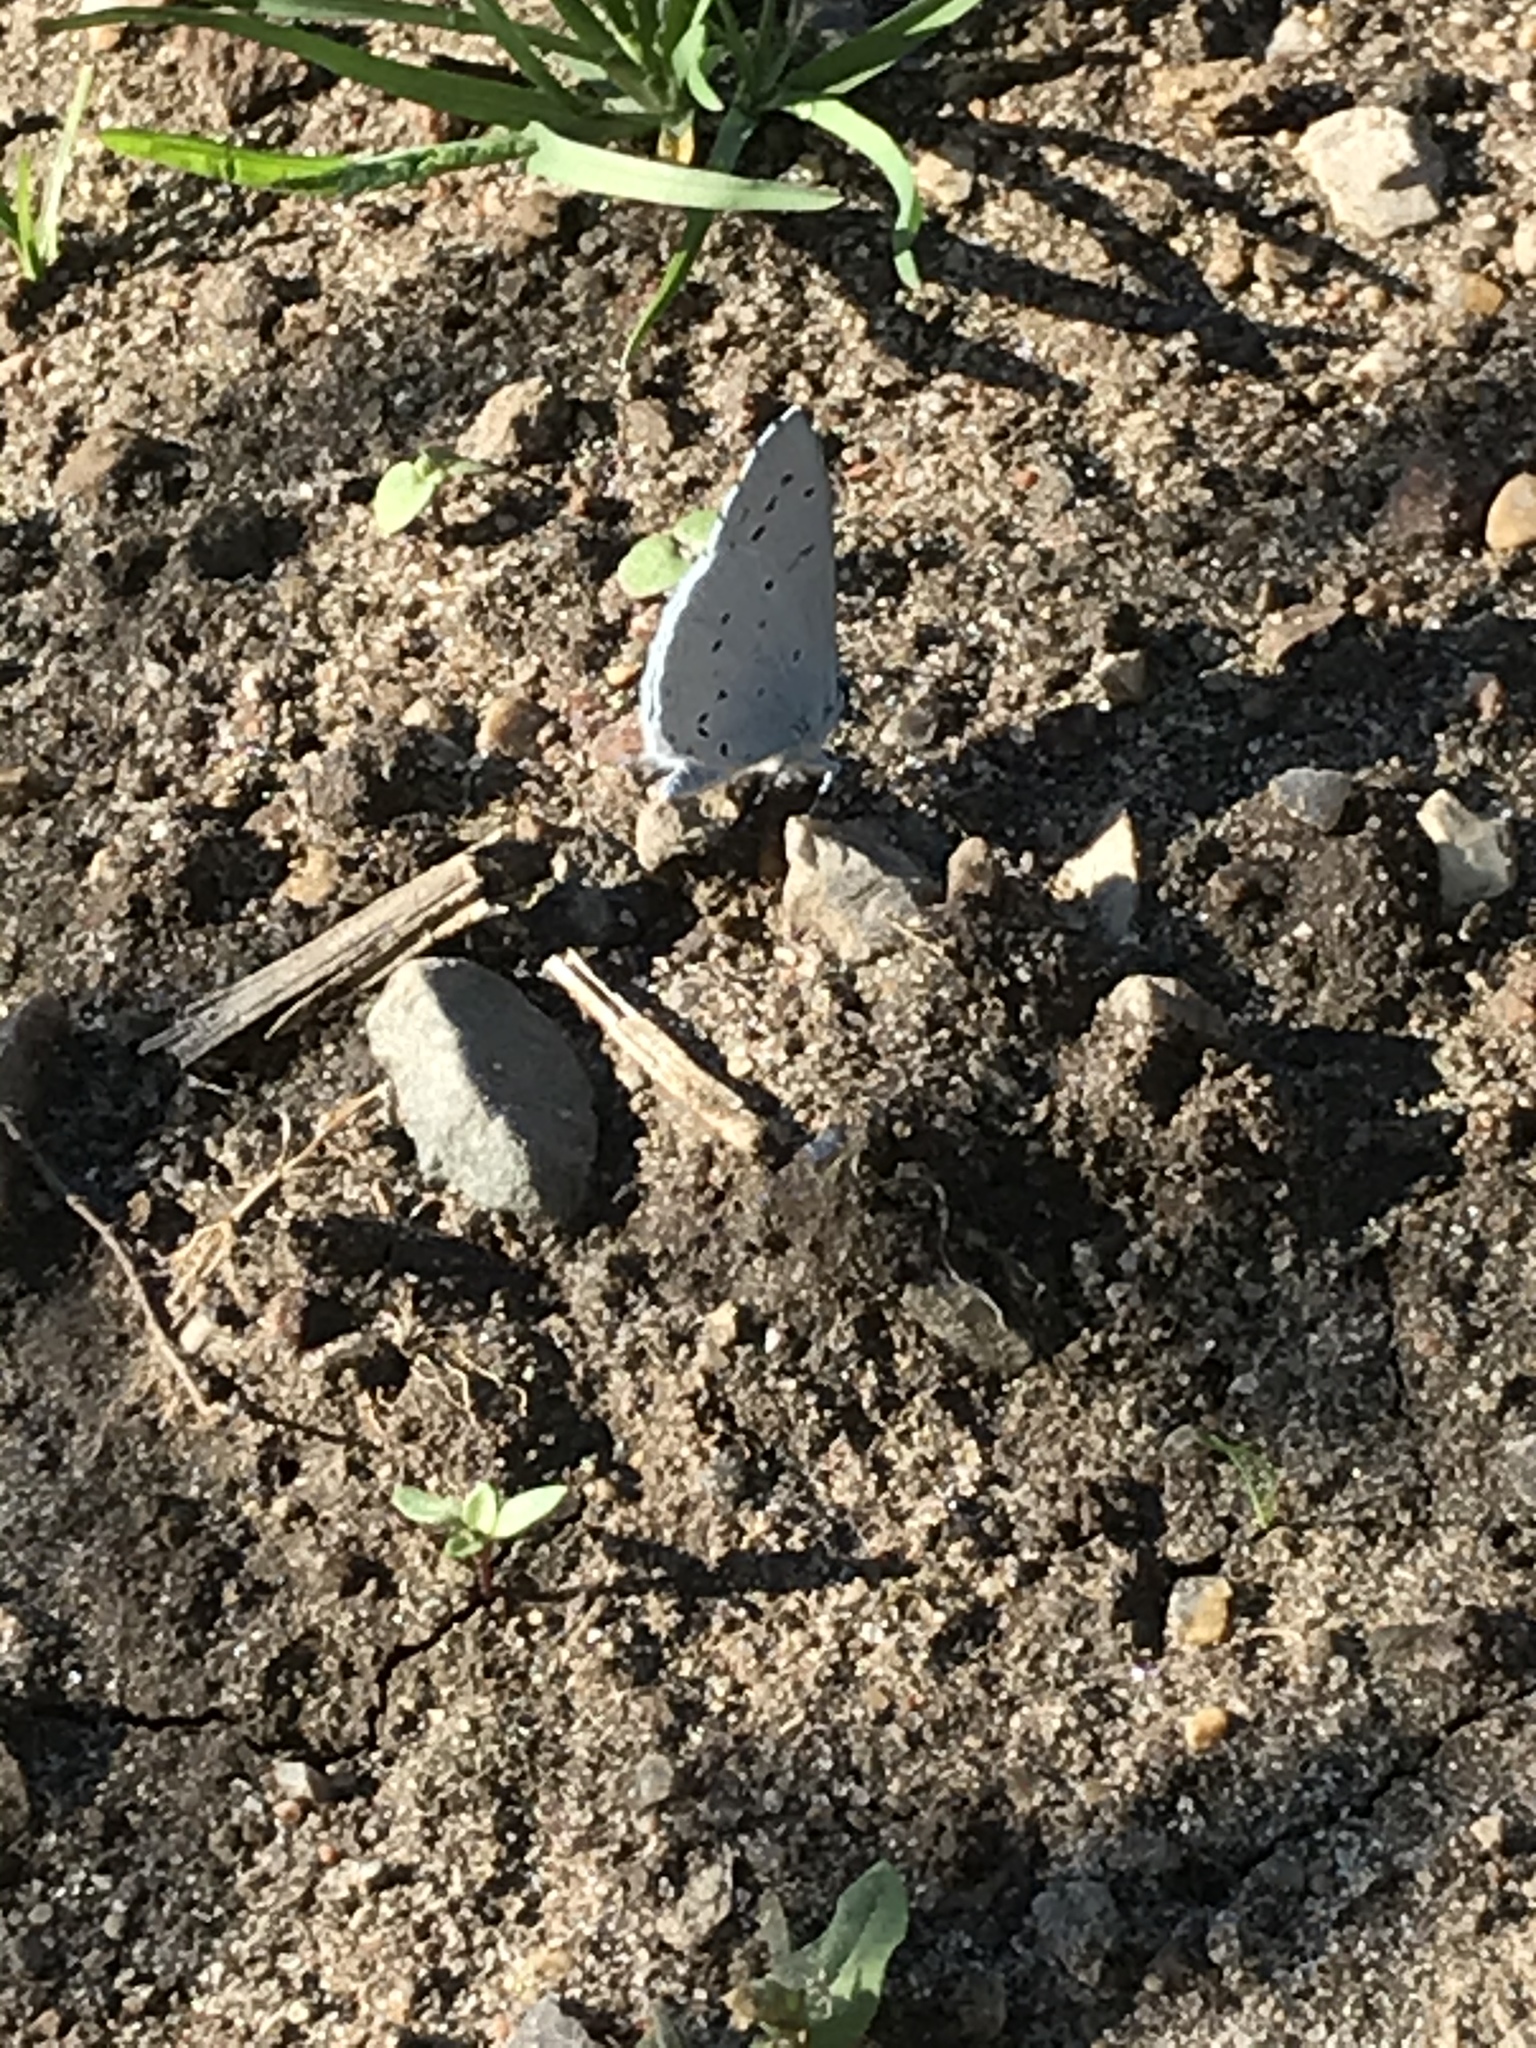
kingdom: Animalia
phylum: Arthropoda
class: Insecta
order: Lepidoptera
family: Lycaenidae
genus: Celastrina
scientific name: Celastrina argiolus
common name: Holly blue
